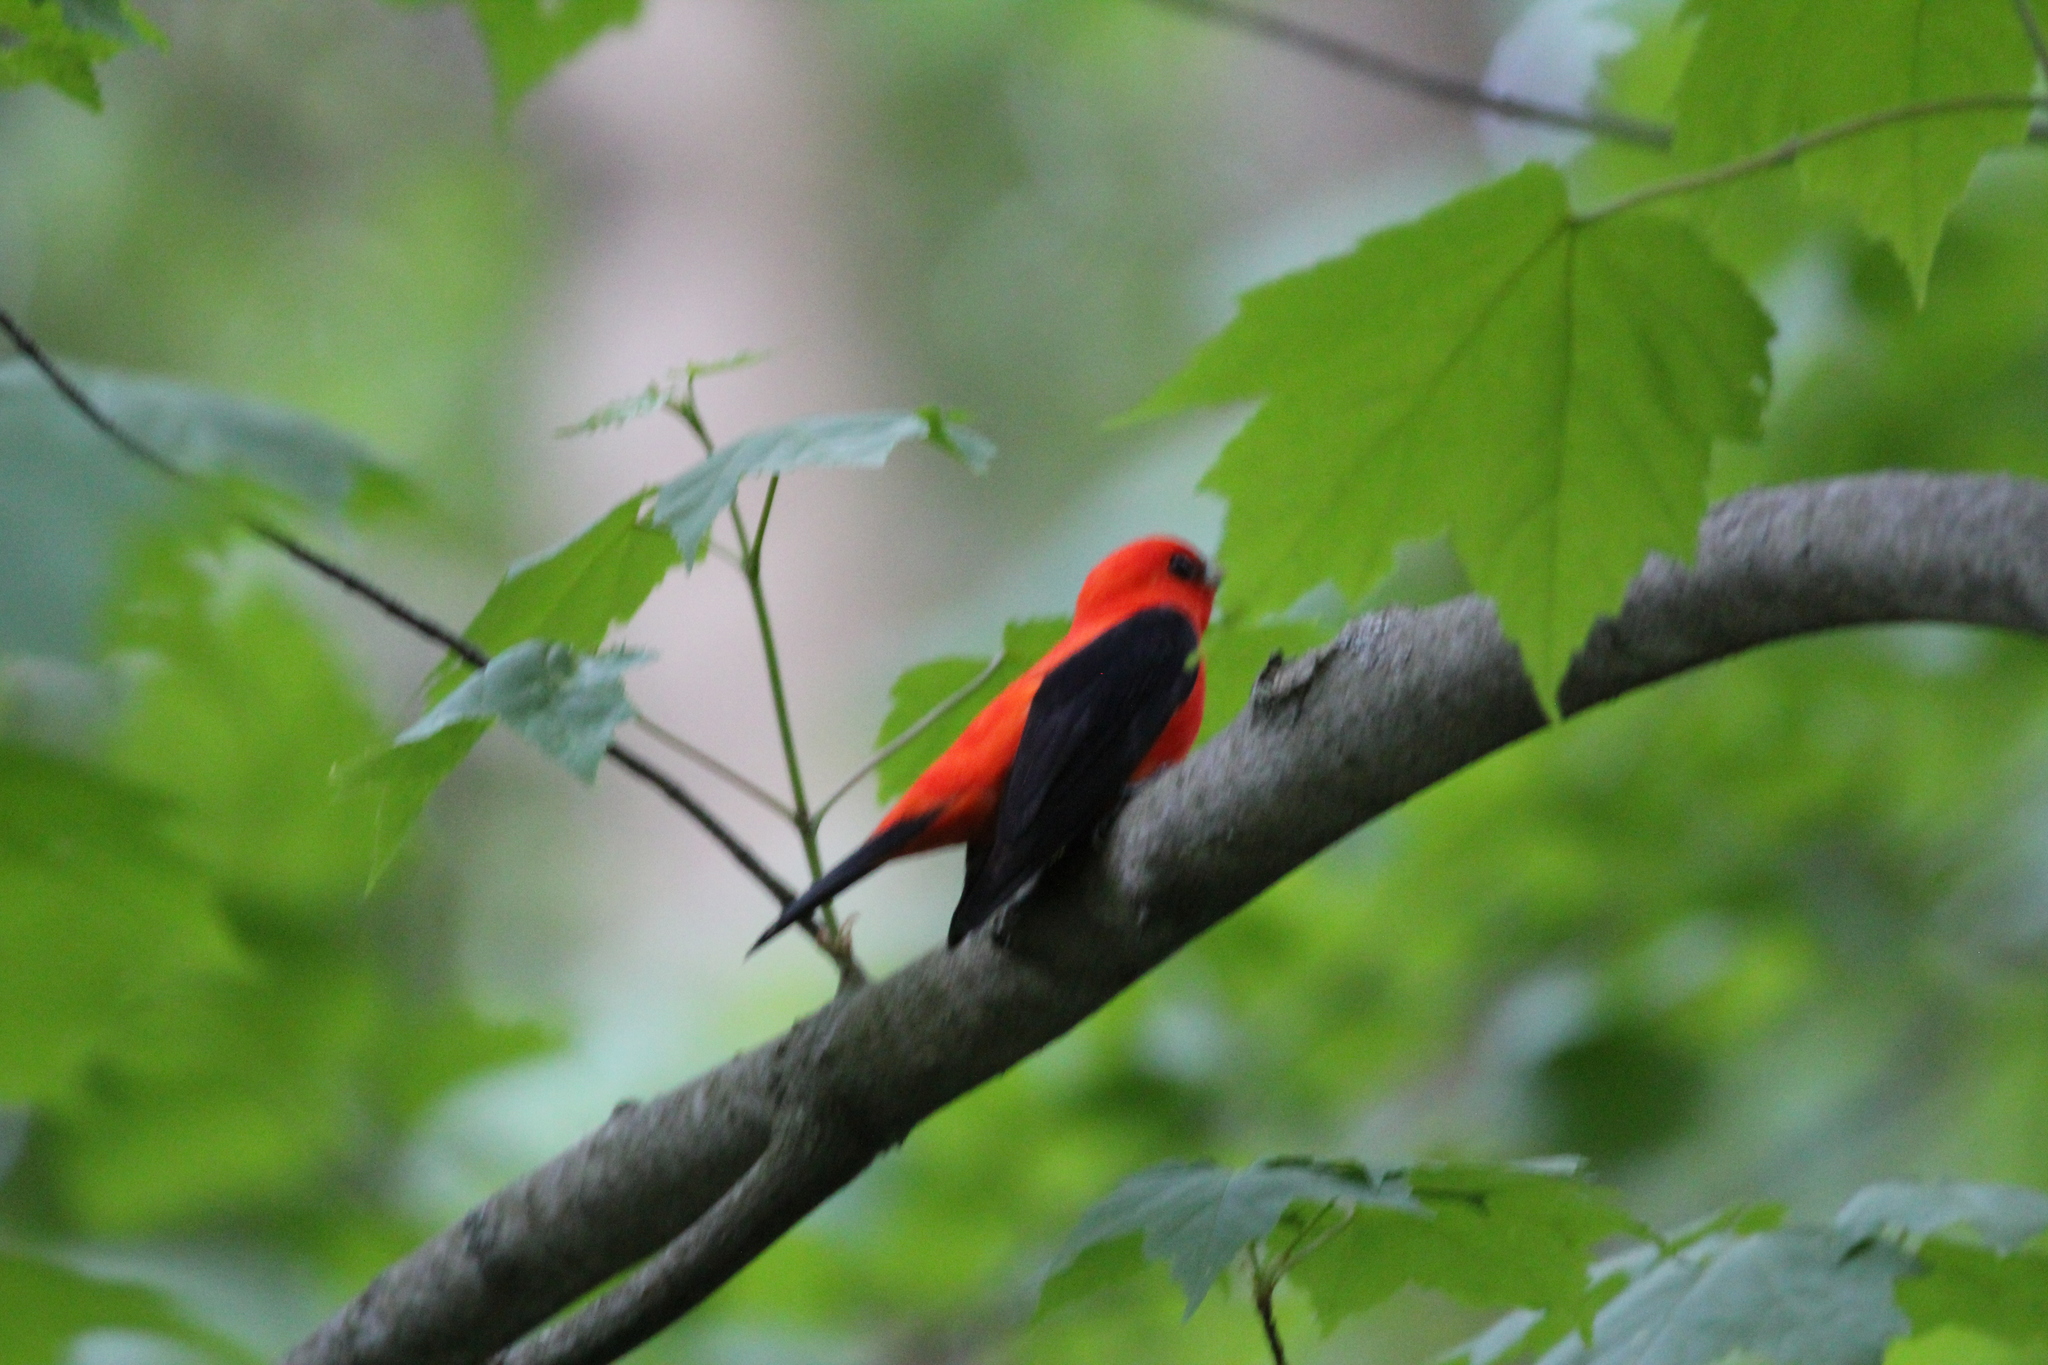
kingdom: Animalia
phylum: Chordata
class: Aves
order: Passeriformes
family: Cardinalidae
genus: Piranga
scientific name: Piranga olivacea
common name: Scarlet tanager
